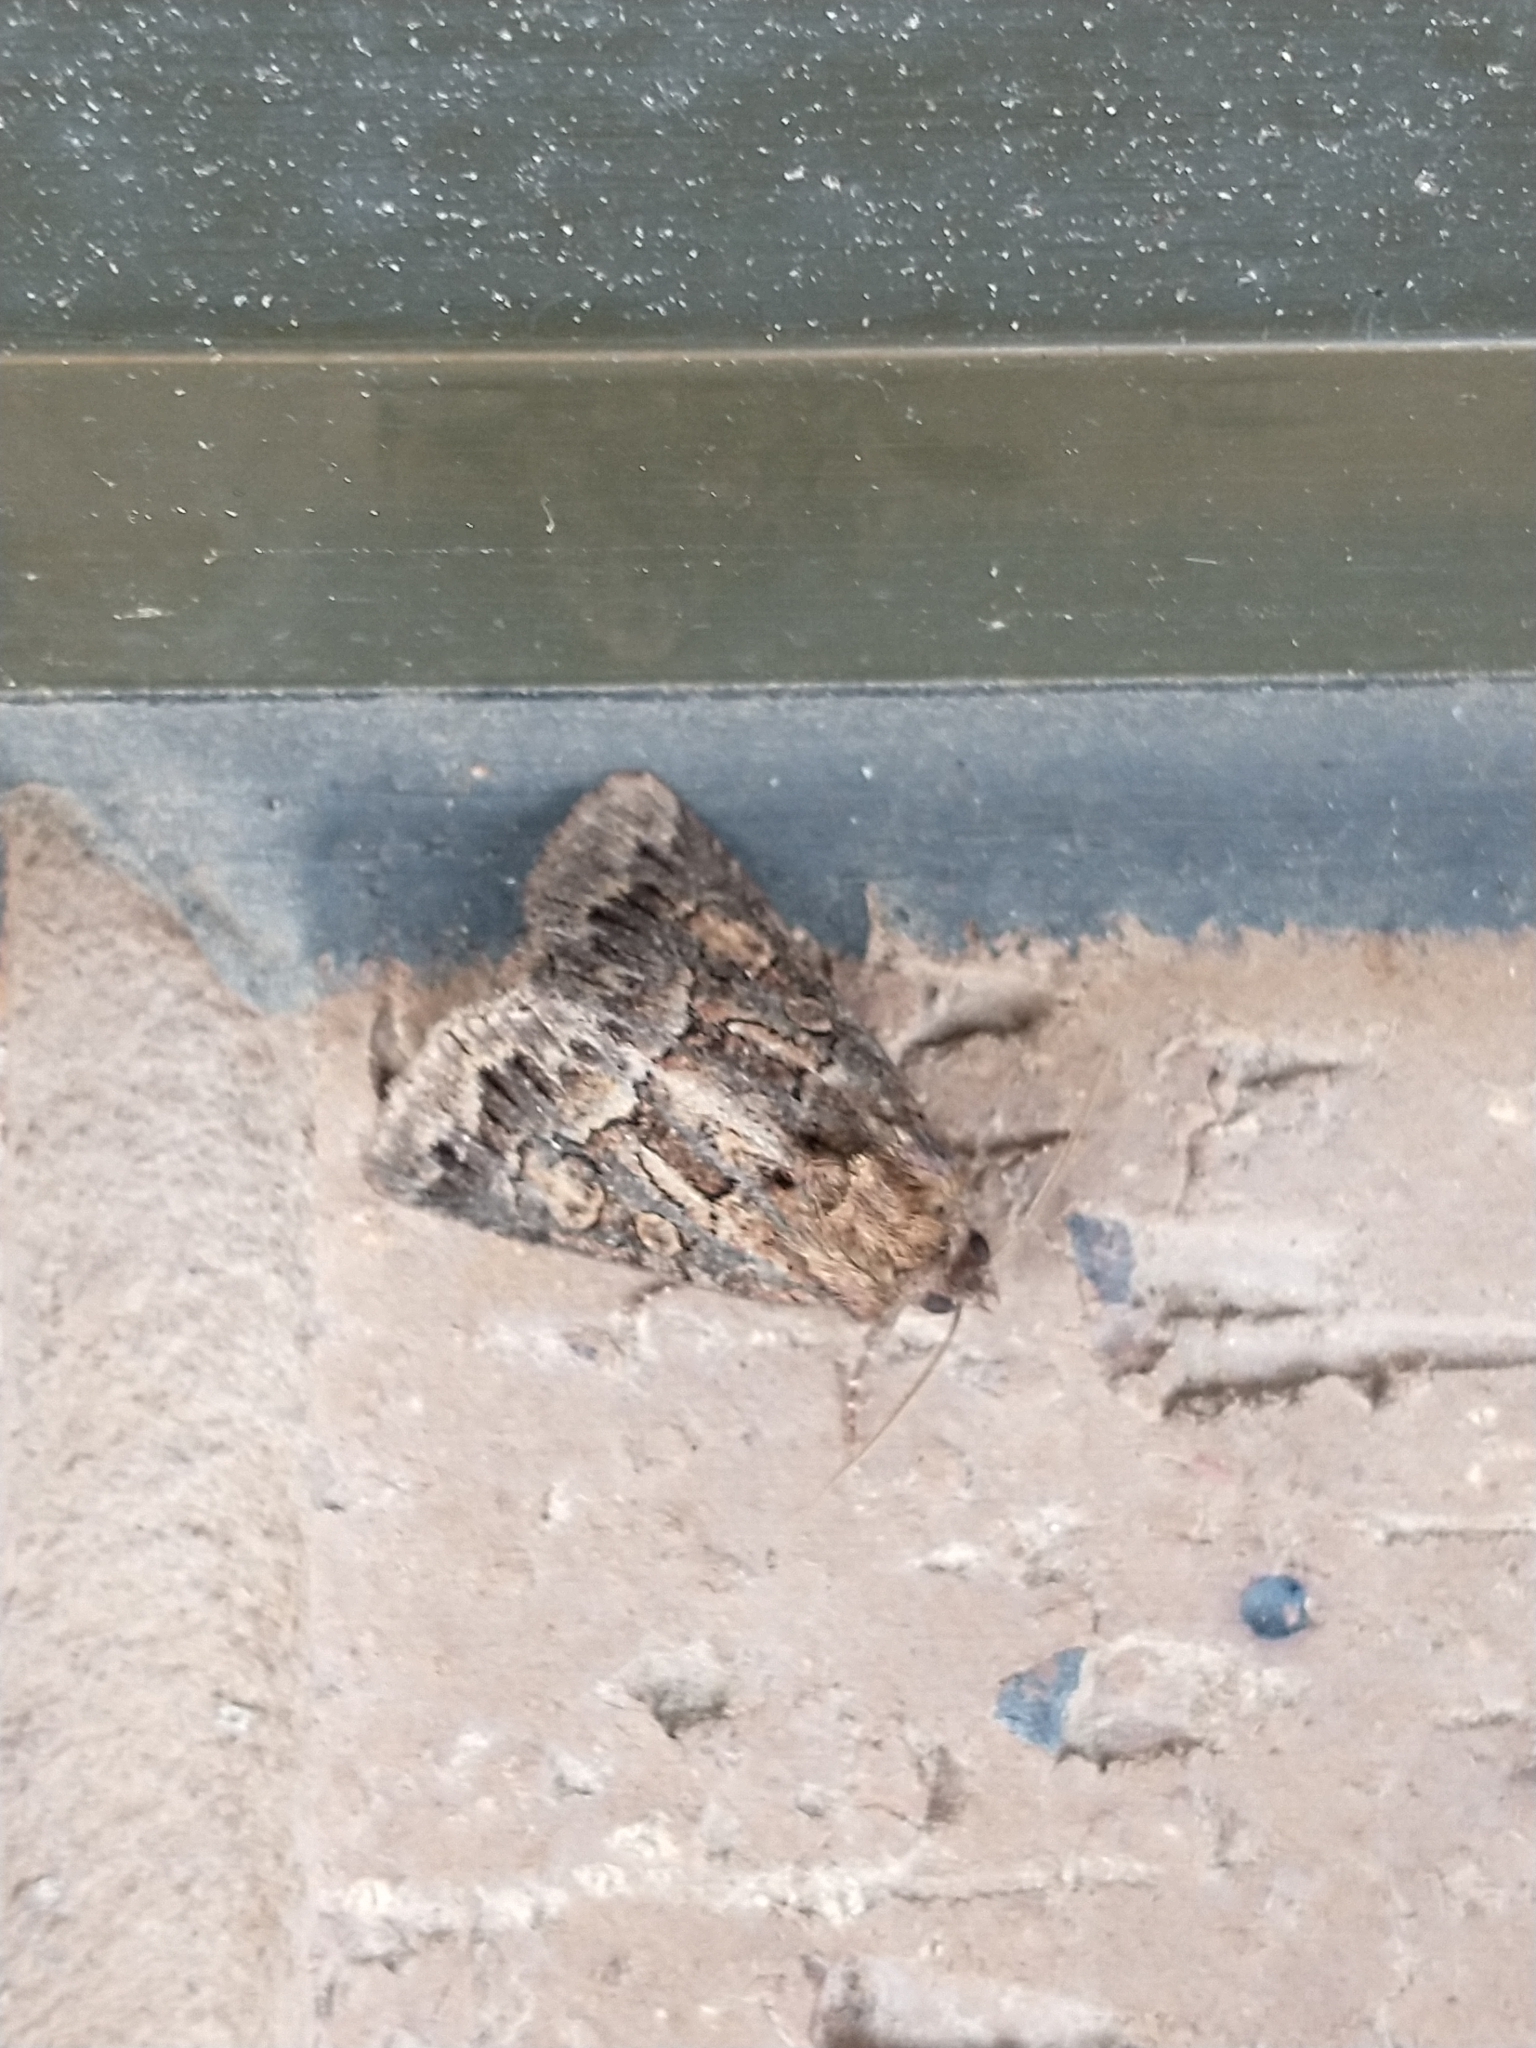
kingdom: Animalia
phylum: Arthropoda
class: Insecta
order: Lepidoptera
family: Noctuidae
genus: Thalpophila
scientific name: Thalpophila matura
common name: Straw underwing
